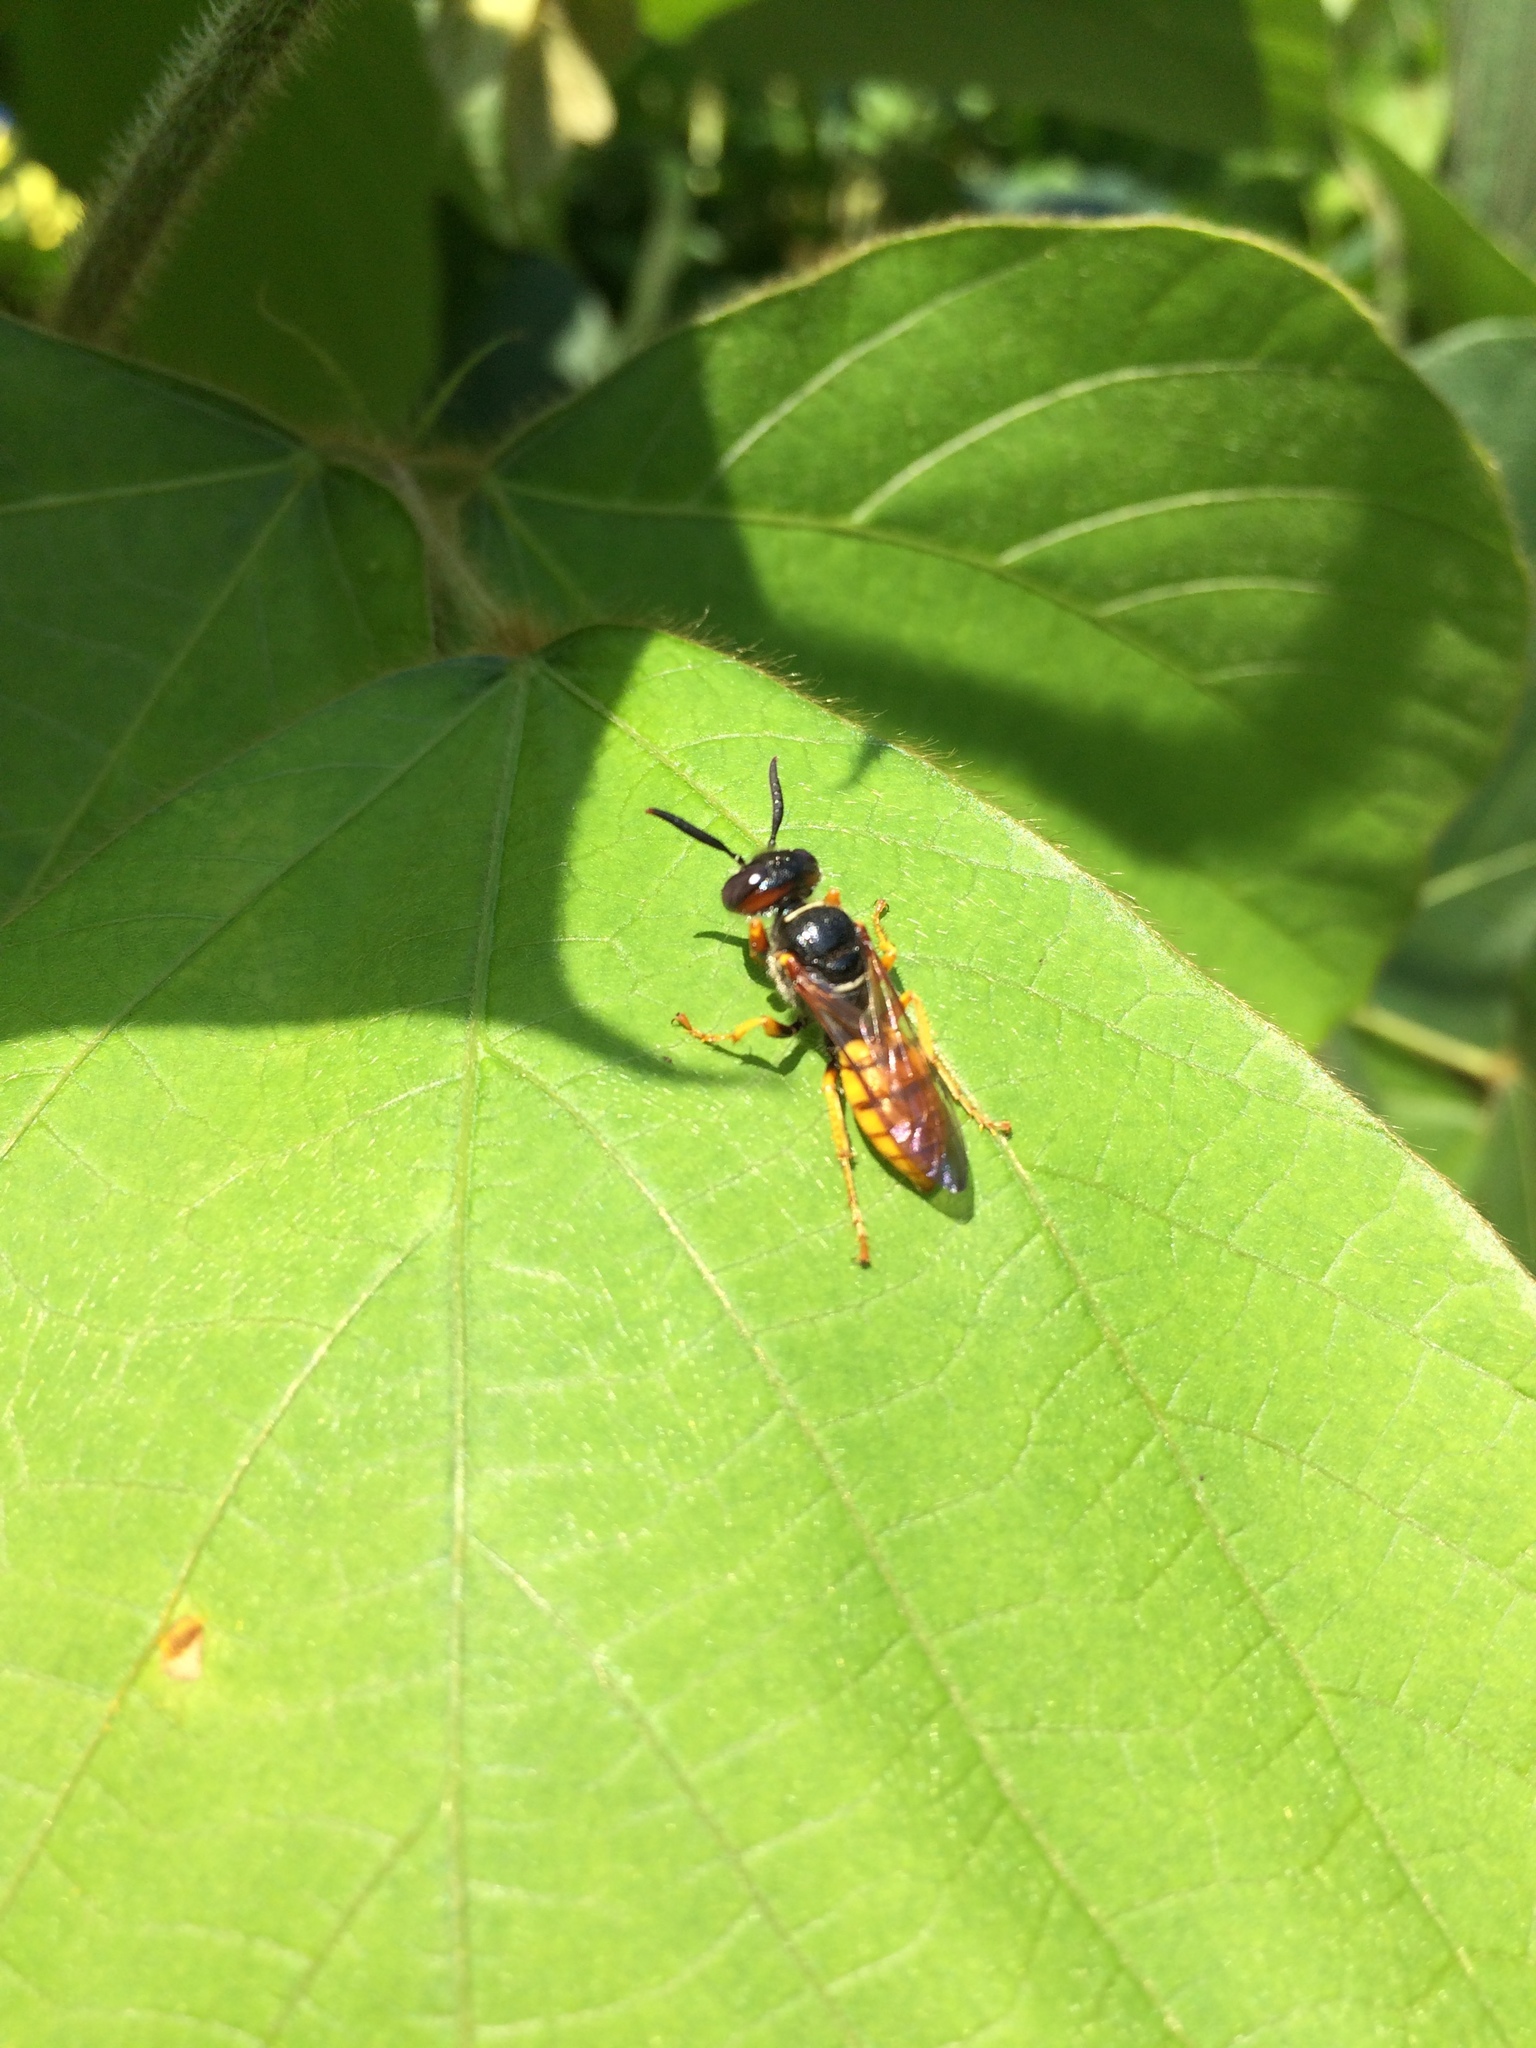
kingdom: Animalia
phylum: Arthropoda
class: Insecta
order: Hymenoptera
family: Crabronidae
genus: Philanthus
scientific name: Philanthus triangulum
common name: Bee wolf
